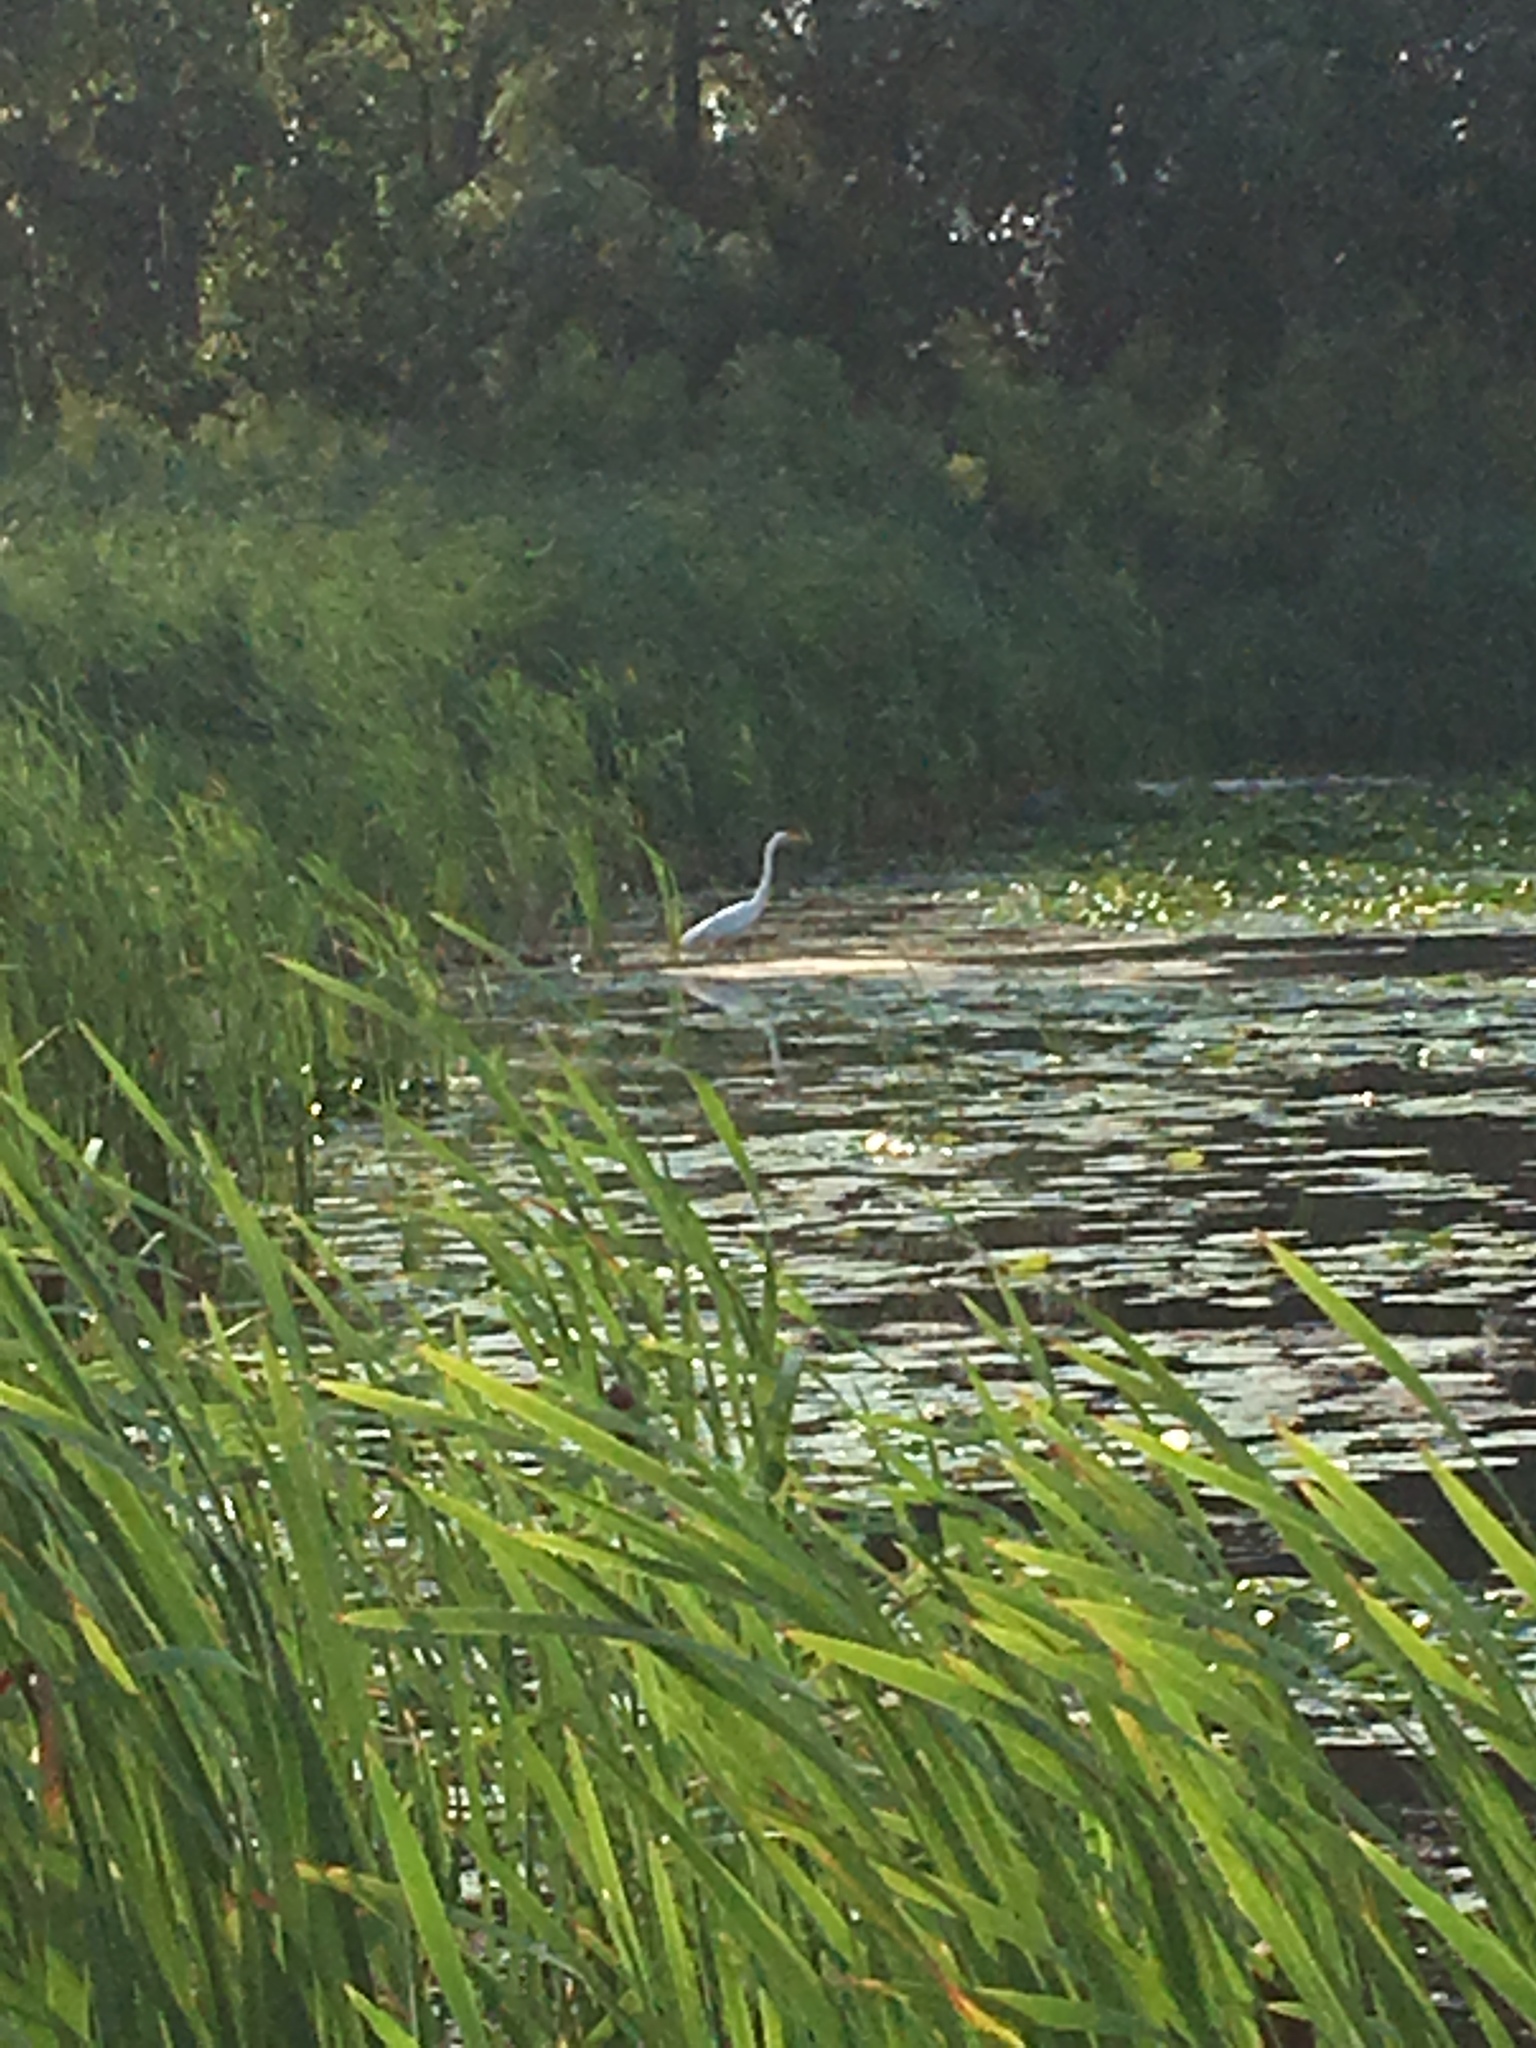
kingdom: Animalia
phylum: Chordata
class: Aves
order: Pelecaniformes
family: Ardeidae
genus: Ardea
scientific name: Ardea alba
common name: Great egret
